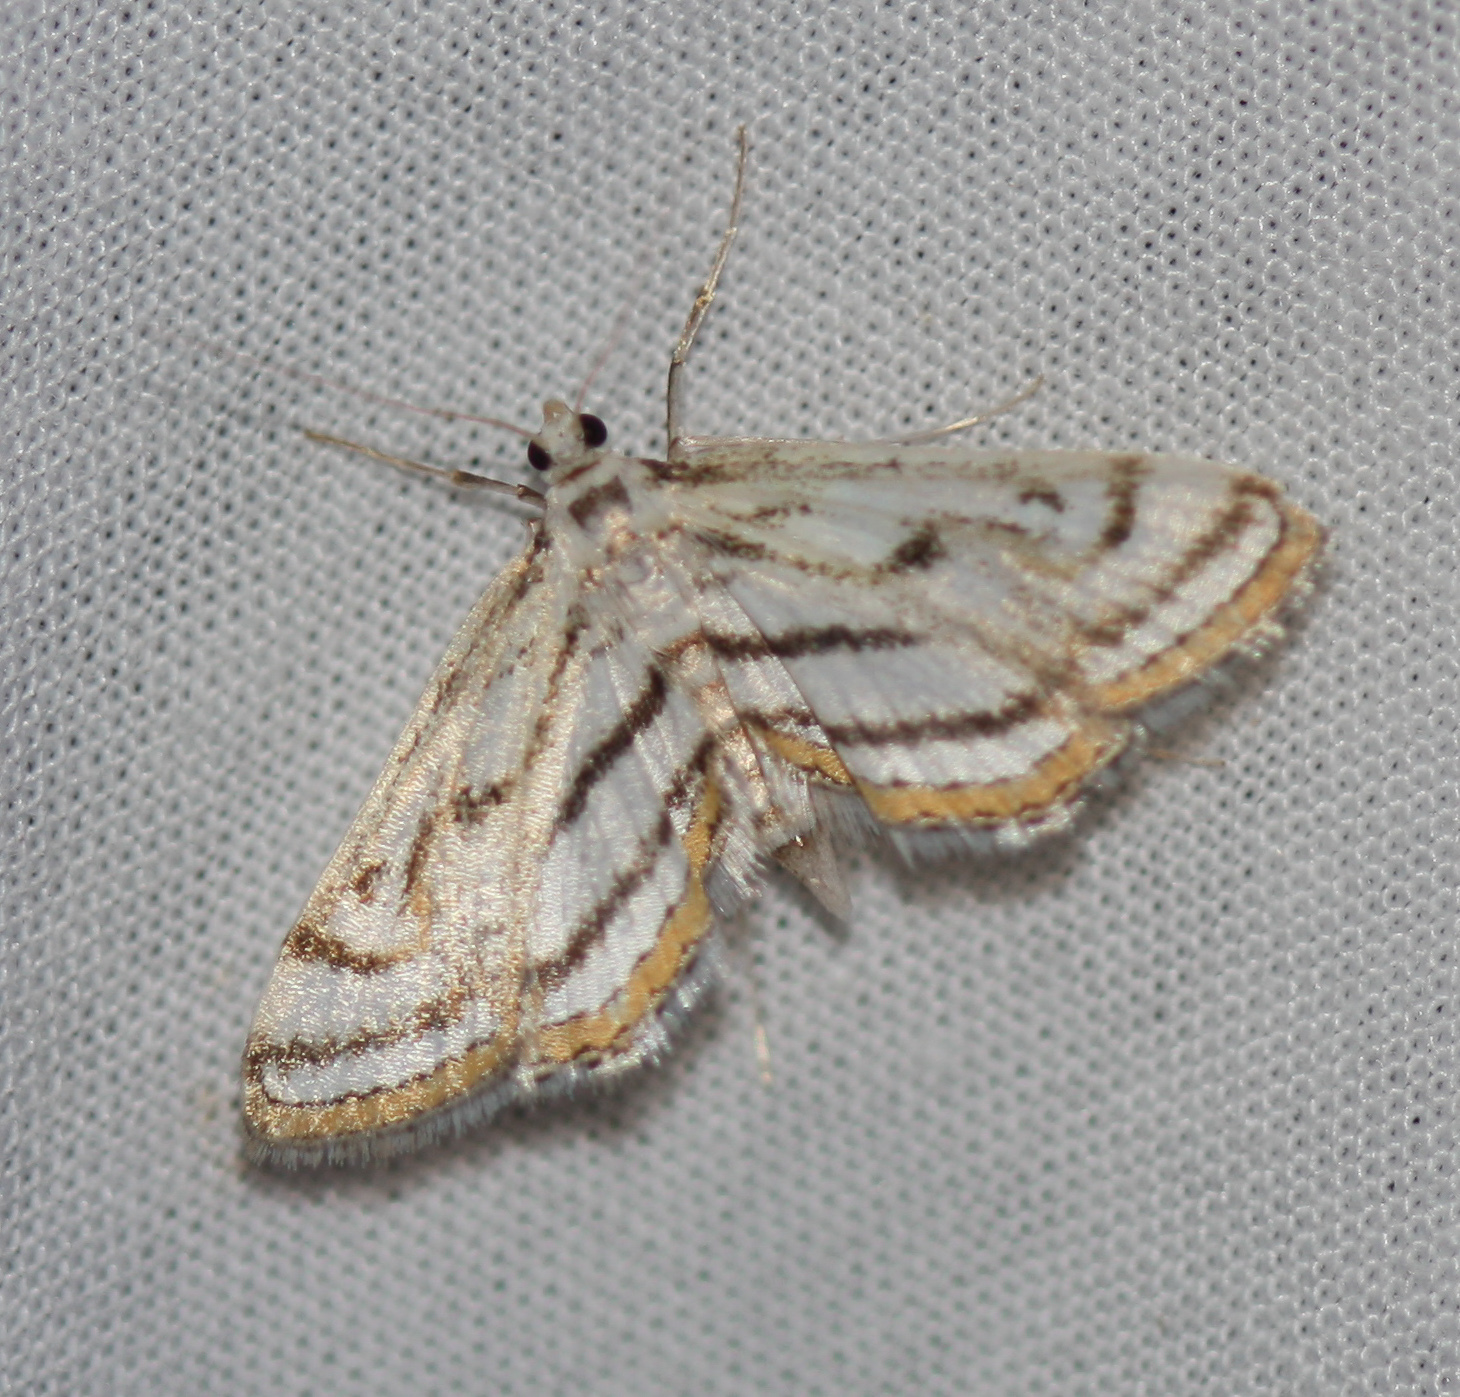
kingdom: Animalia
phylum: Arthropoda
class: Insecta
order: Lepidoptera
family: Crambidae
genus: Parapoynx
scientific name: Parapoynx badiusalis
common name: Chestnut-marked pondweed moth
